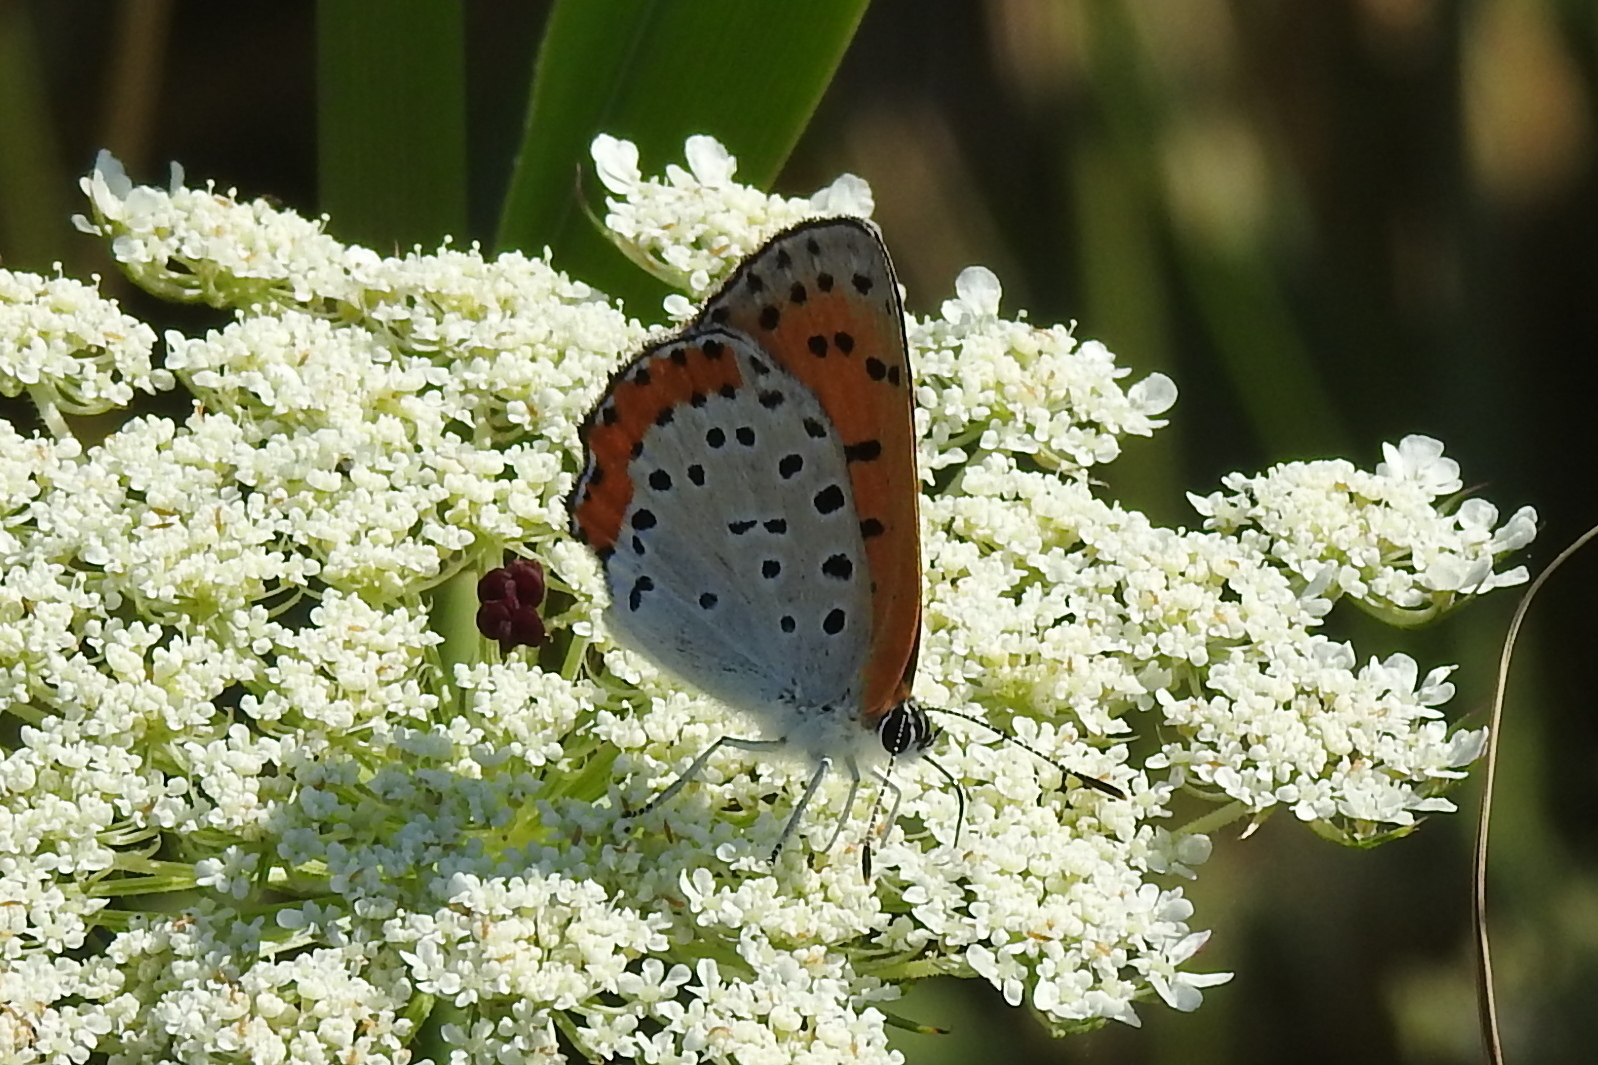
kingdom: Animalia
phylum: Arthropoda
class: Insecta
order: Lepidoptera
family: Lycaenidae
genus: Tharsalea
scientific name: Tharsalea hyllus
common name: Bronze copper
